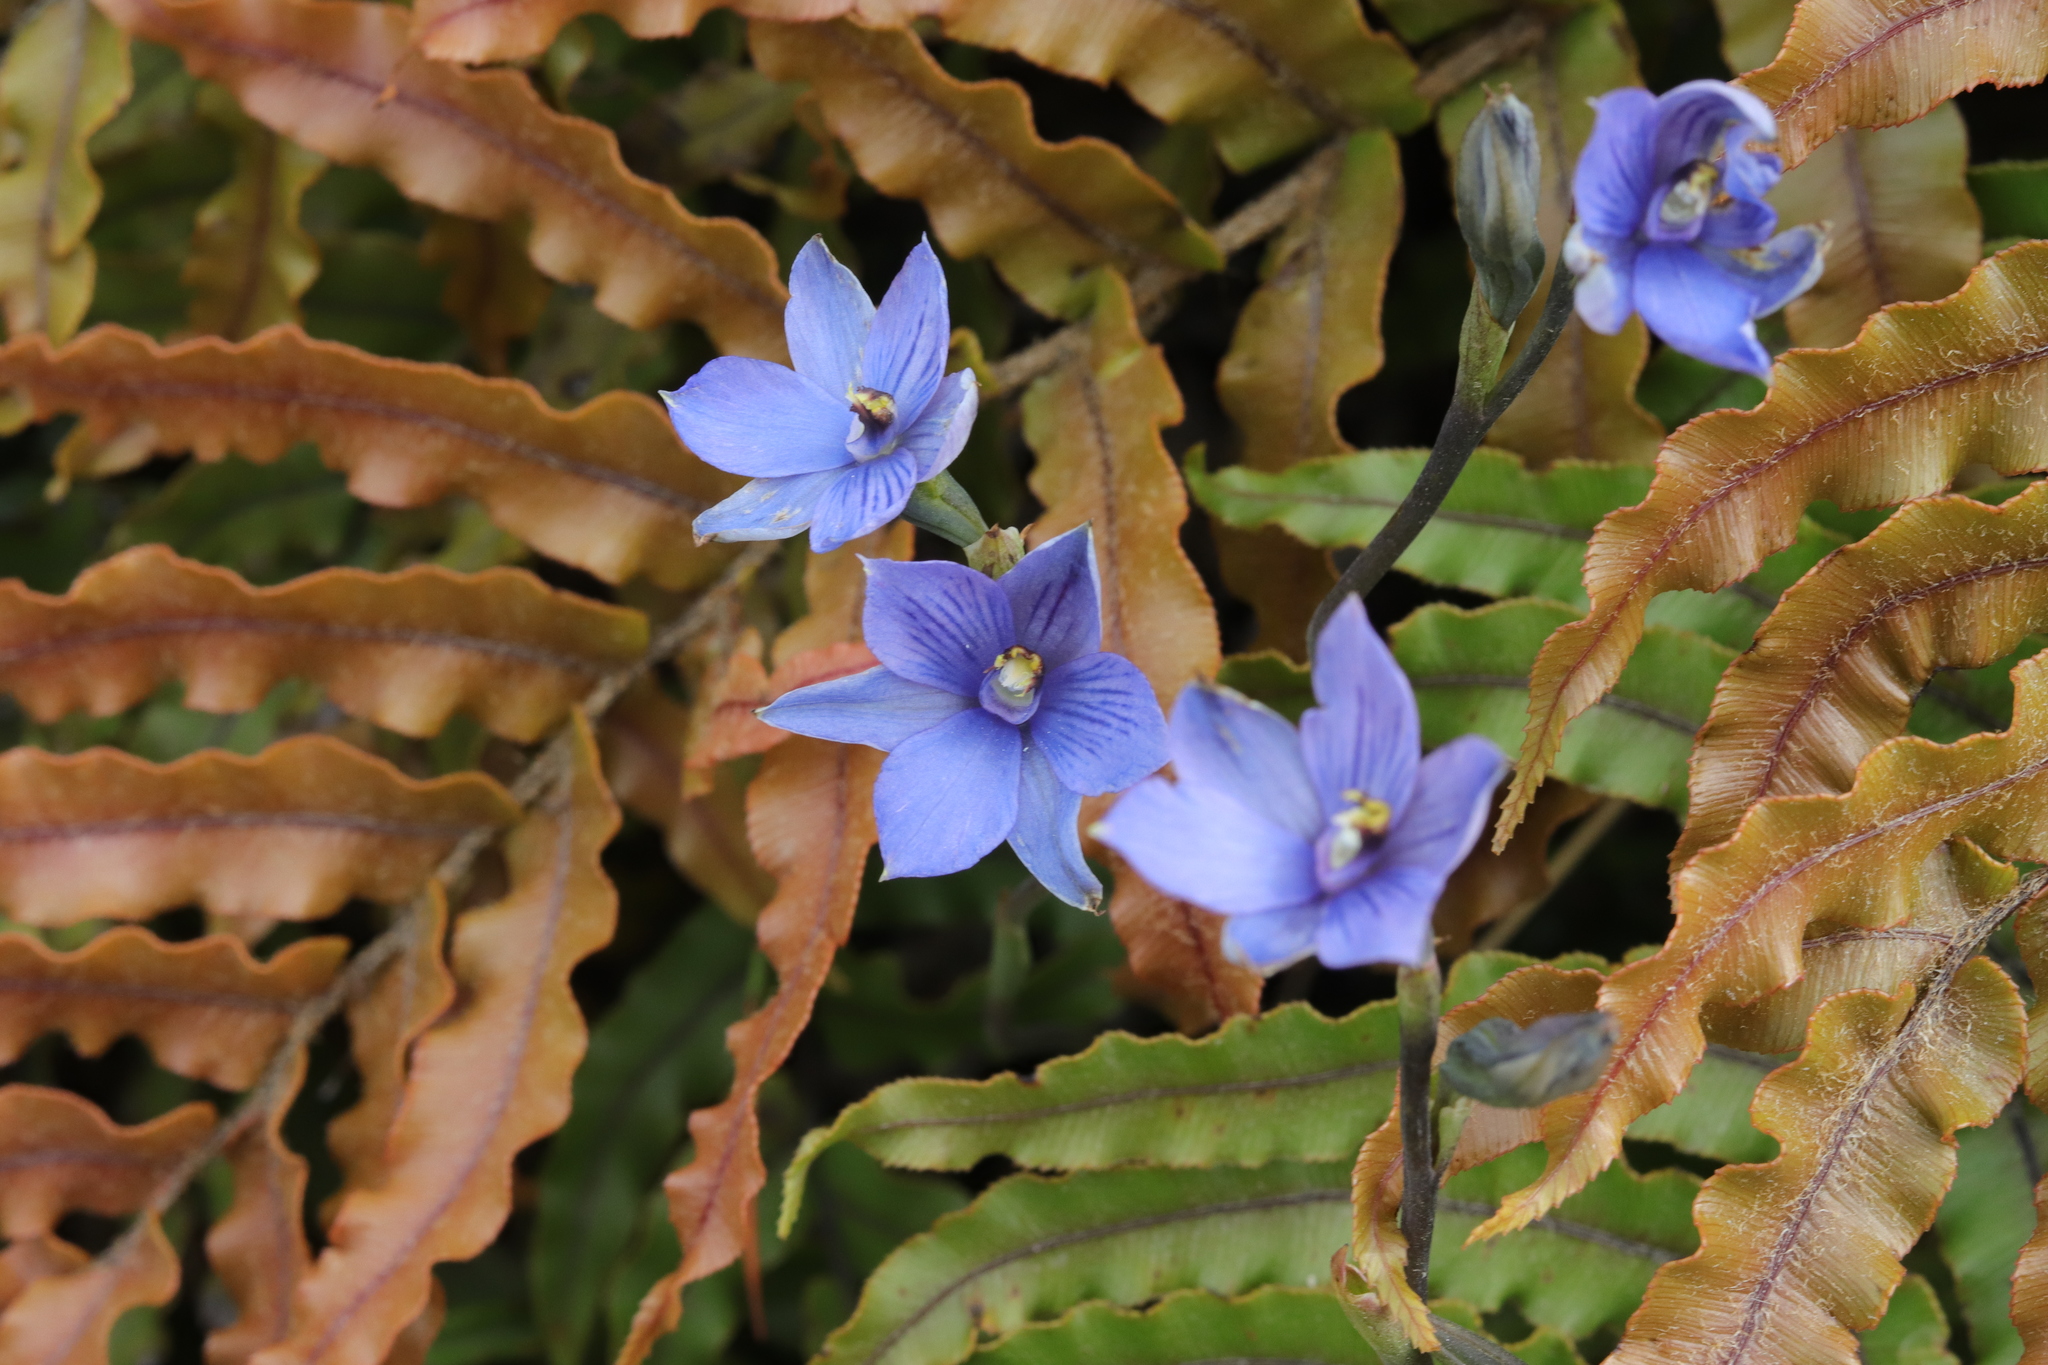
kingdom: Plantae
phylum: Tracheophyta
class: Liliopsida
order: Asparagales
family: Orchidaceae
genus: Thelymitra
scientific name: Thelymitra pulchella
